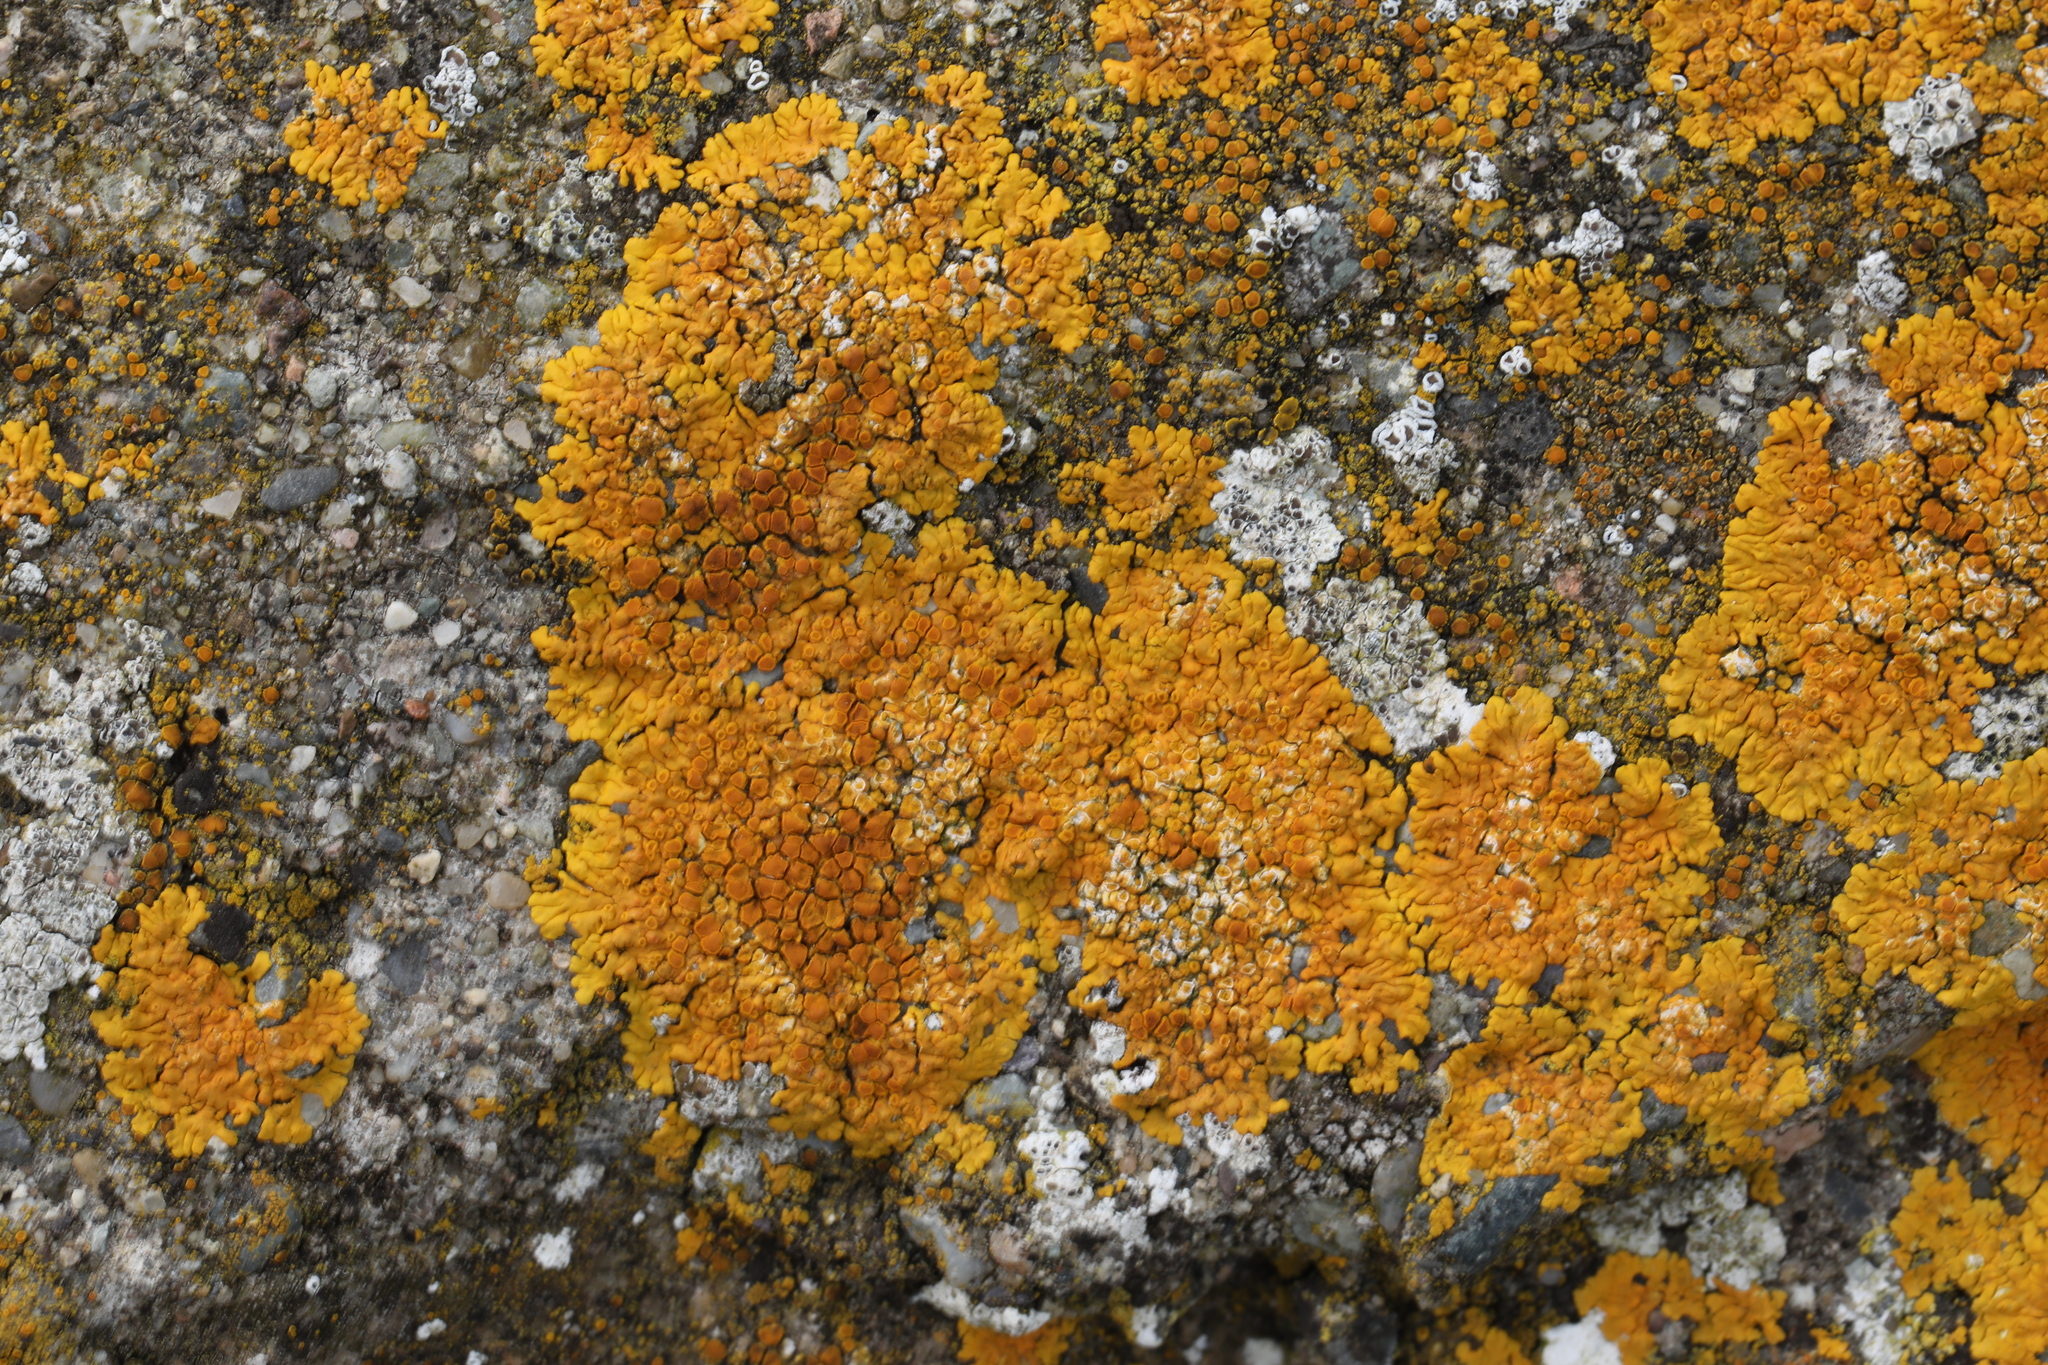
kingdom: Fungi
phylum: Ascomycota
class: Lecanoromycetes
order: Teloschistales
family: Teloschistaceae
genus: Variospora
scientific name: Variospora flavescens
